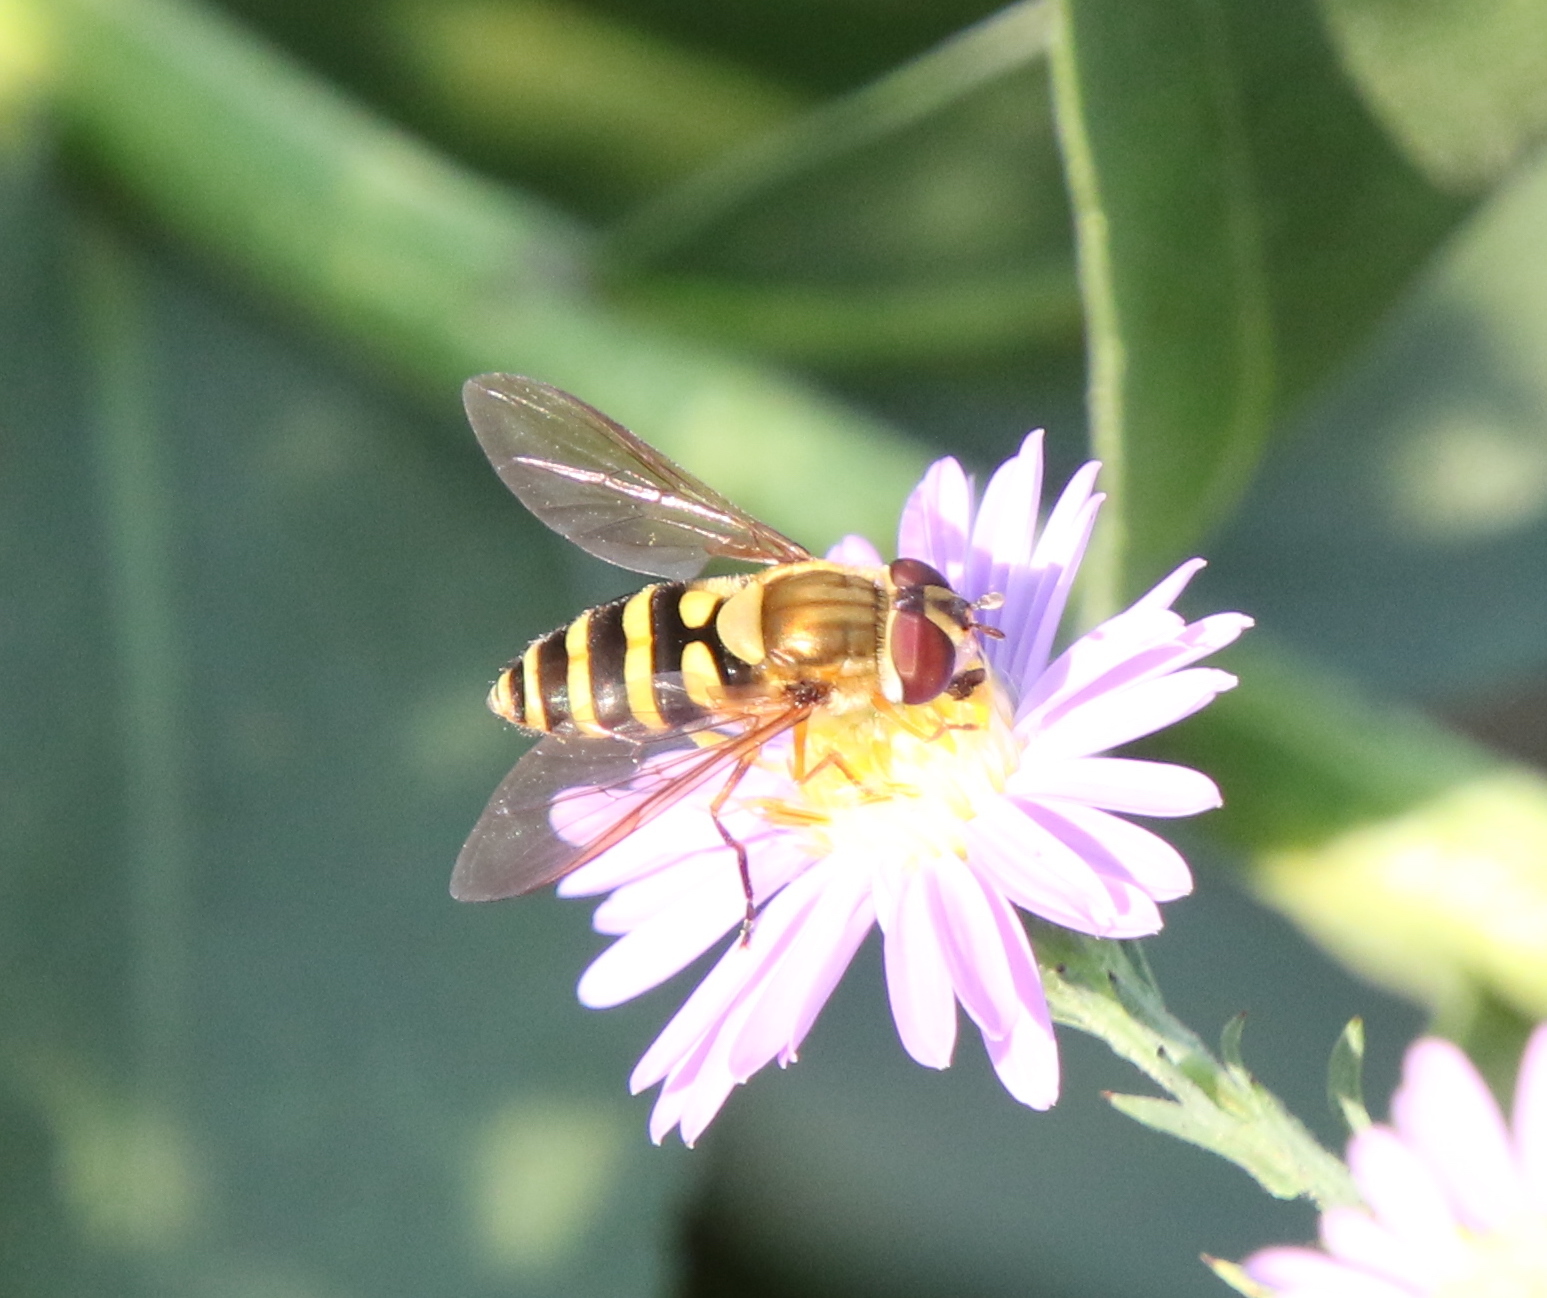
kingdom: Animalia
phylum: Arthropoda
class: Insecta
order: Diptera
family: Syrphidae
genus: Syrphus
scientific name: Syrphus rectus
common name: Yellow-legged flower fly
